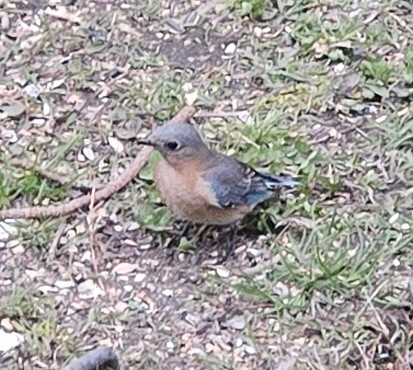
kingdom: Animalia
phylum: Chordata
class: Aves
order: Passeriformes
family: Turdidae
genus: Sialia
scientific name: Sialia sialis
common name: Eastern bluebird
